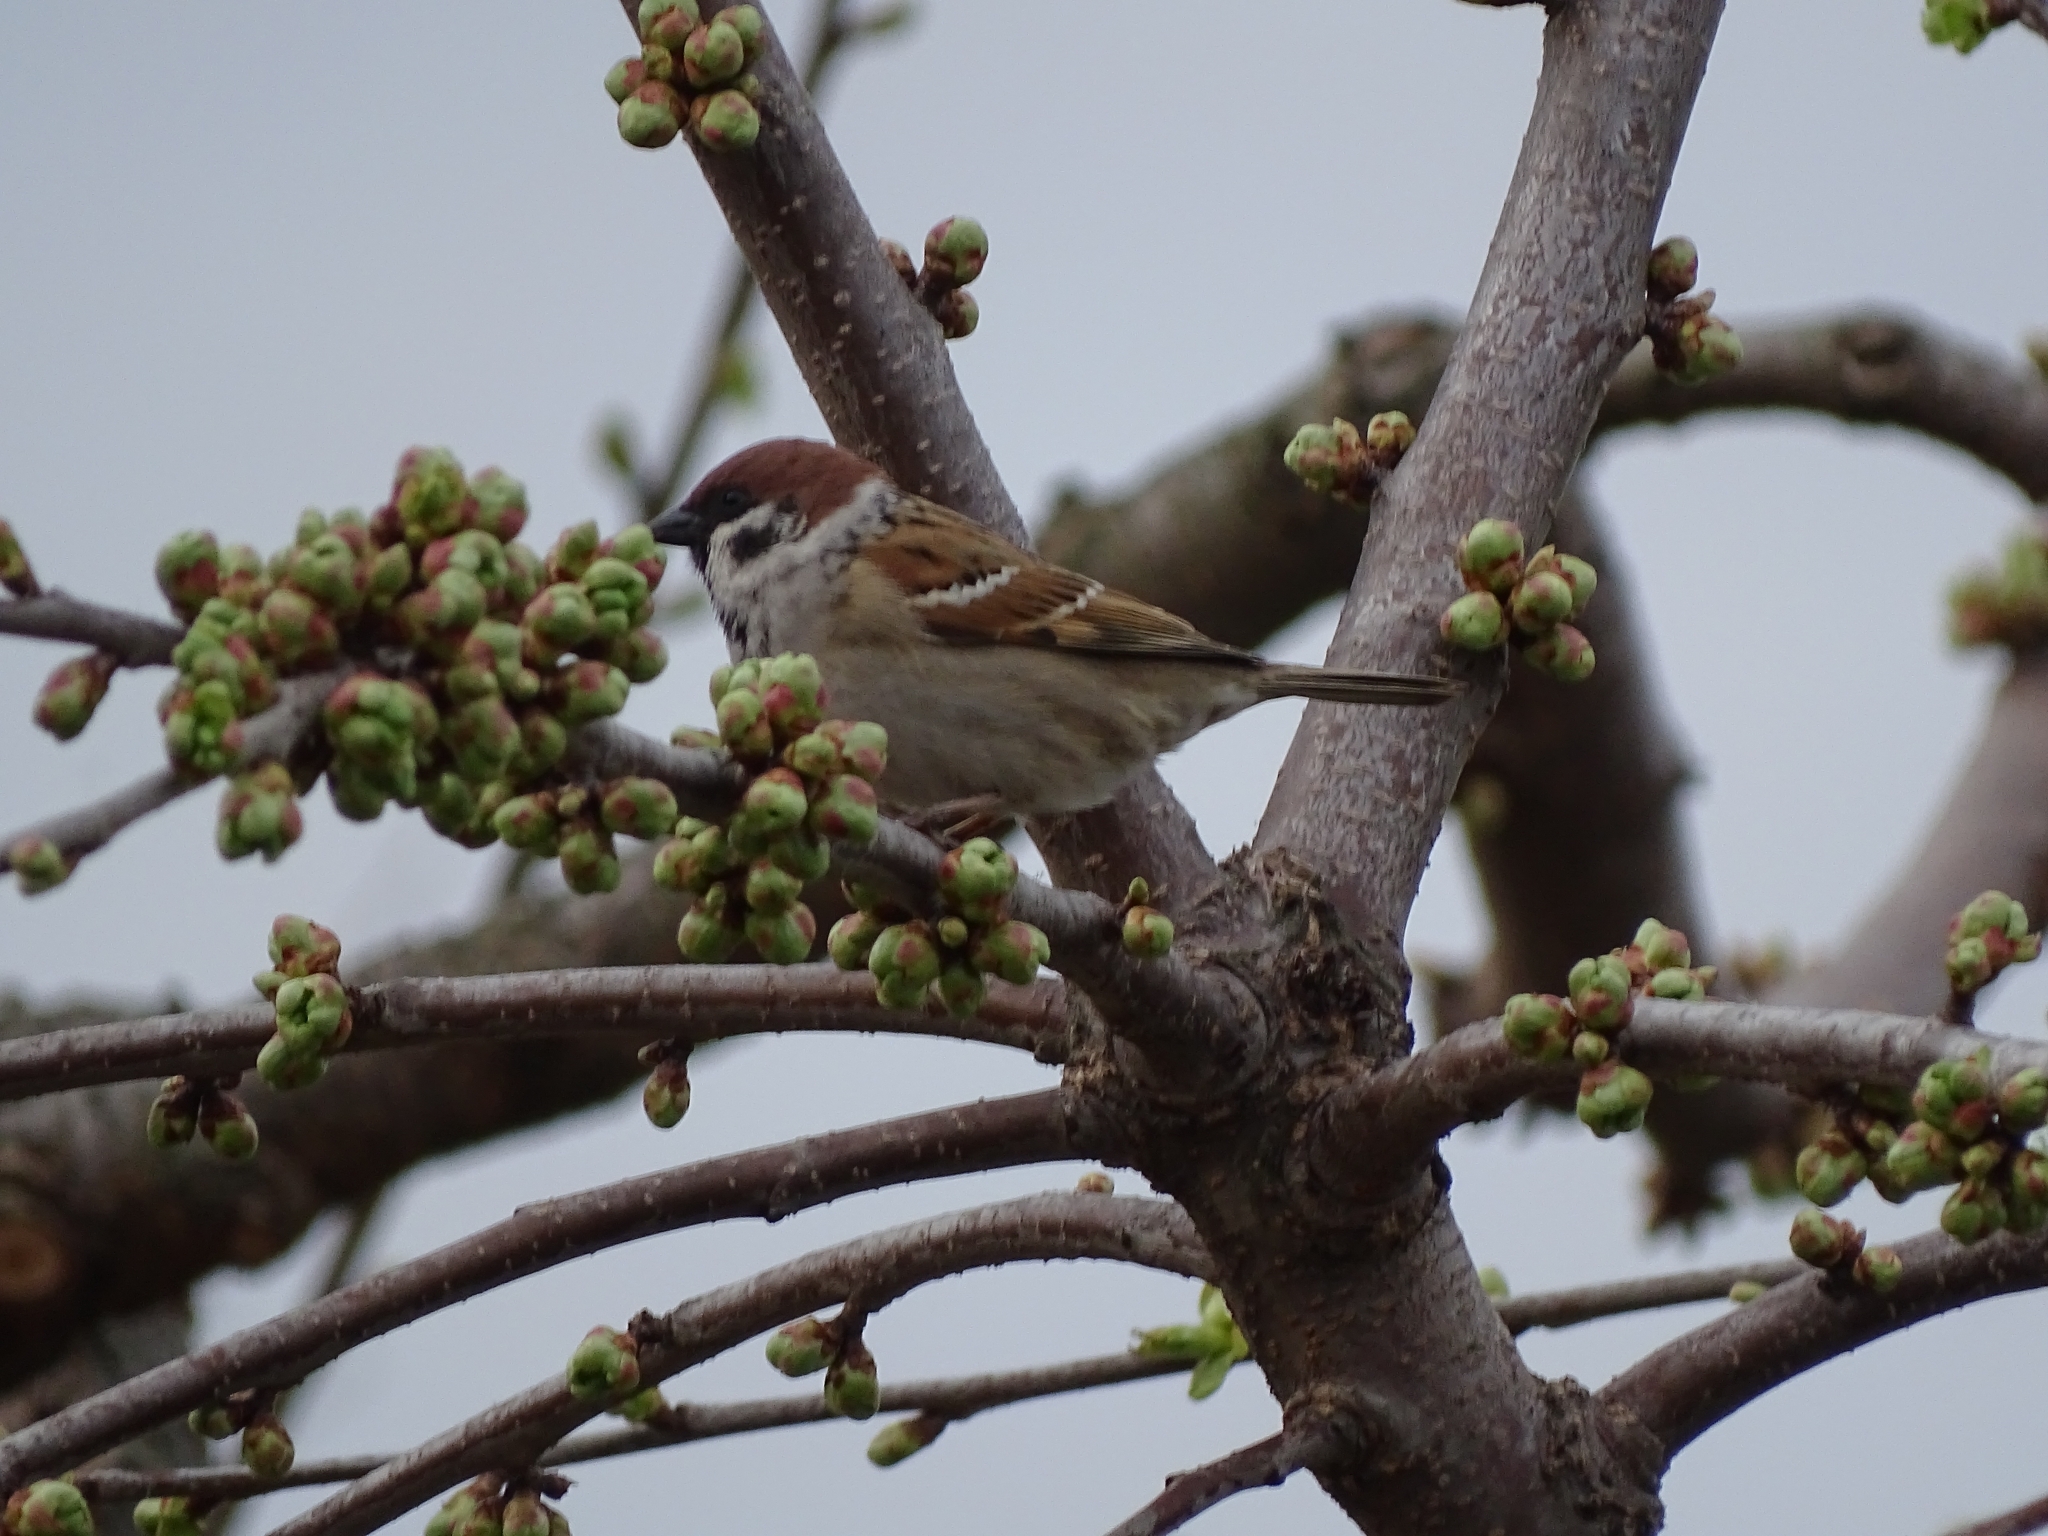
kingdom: Animalia
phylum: Chordata
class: Aves
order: Passeriformes
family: Passeridae
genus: Passer
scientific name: Passer montanus
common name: Eurasian tree sparrow
